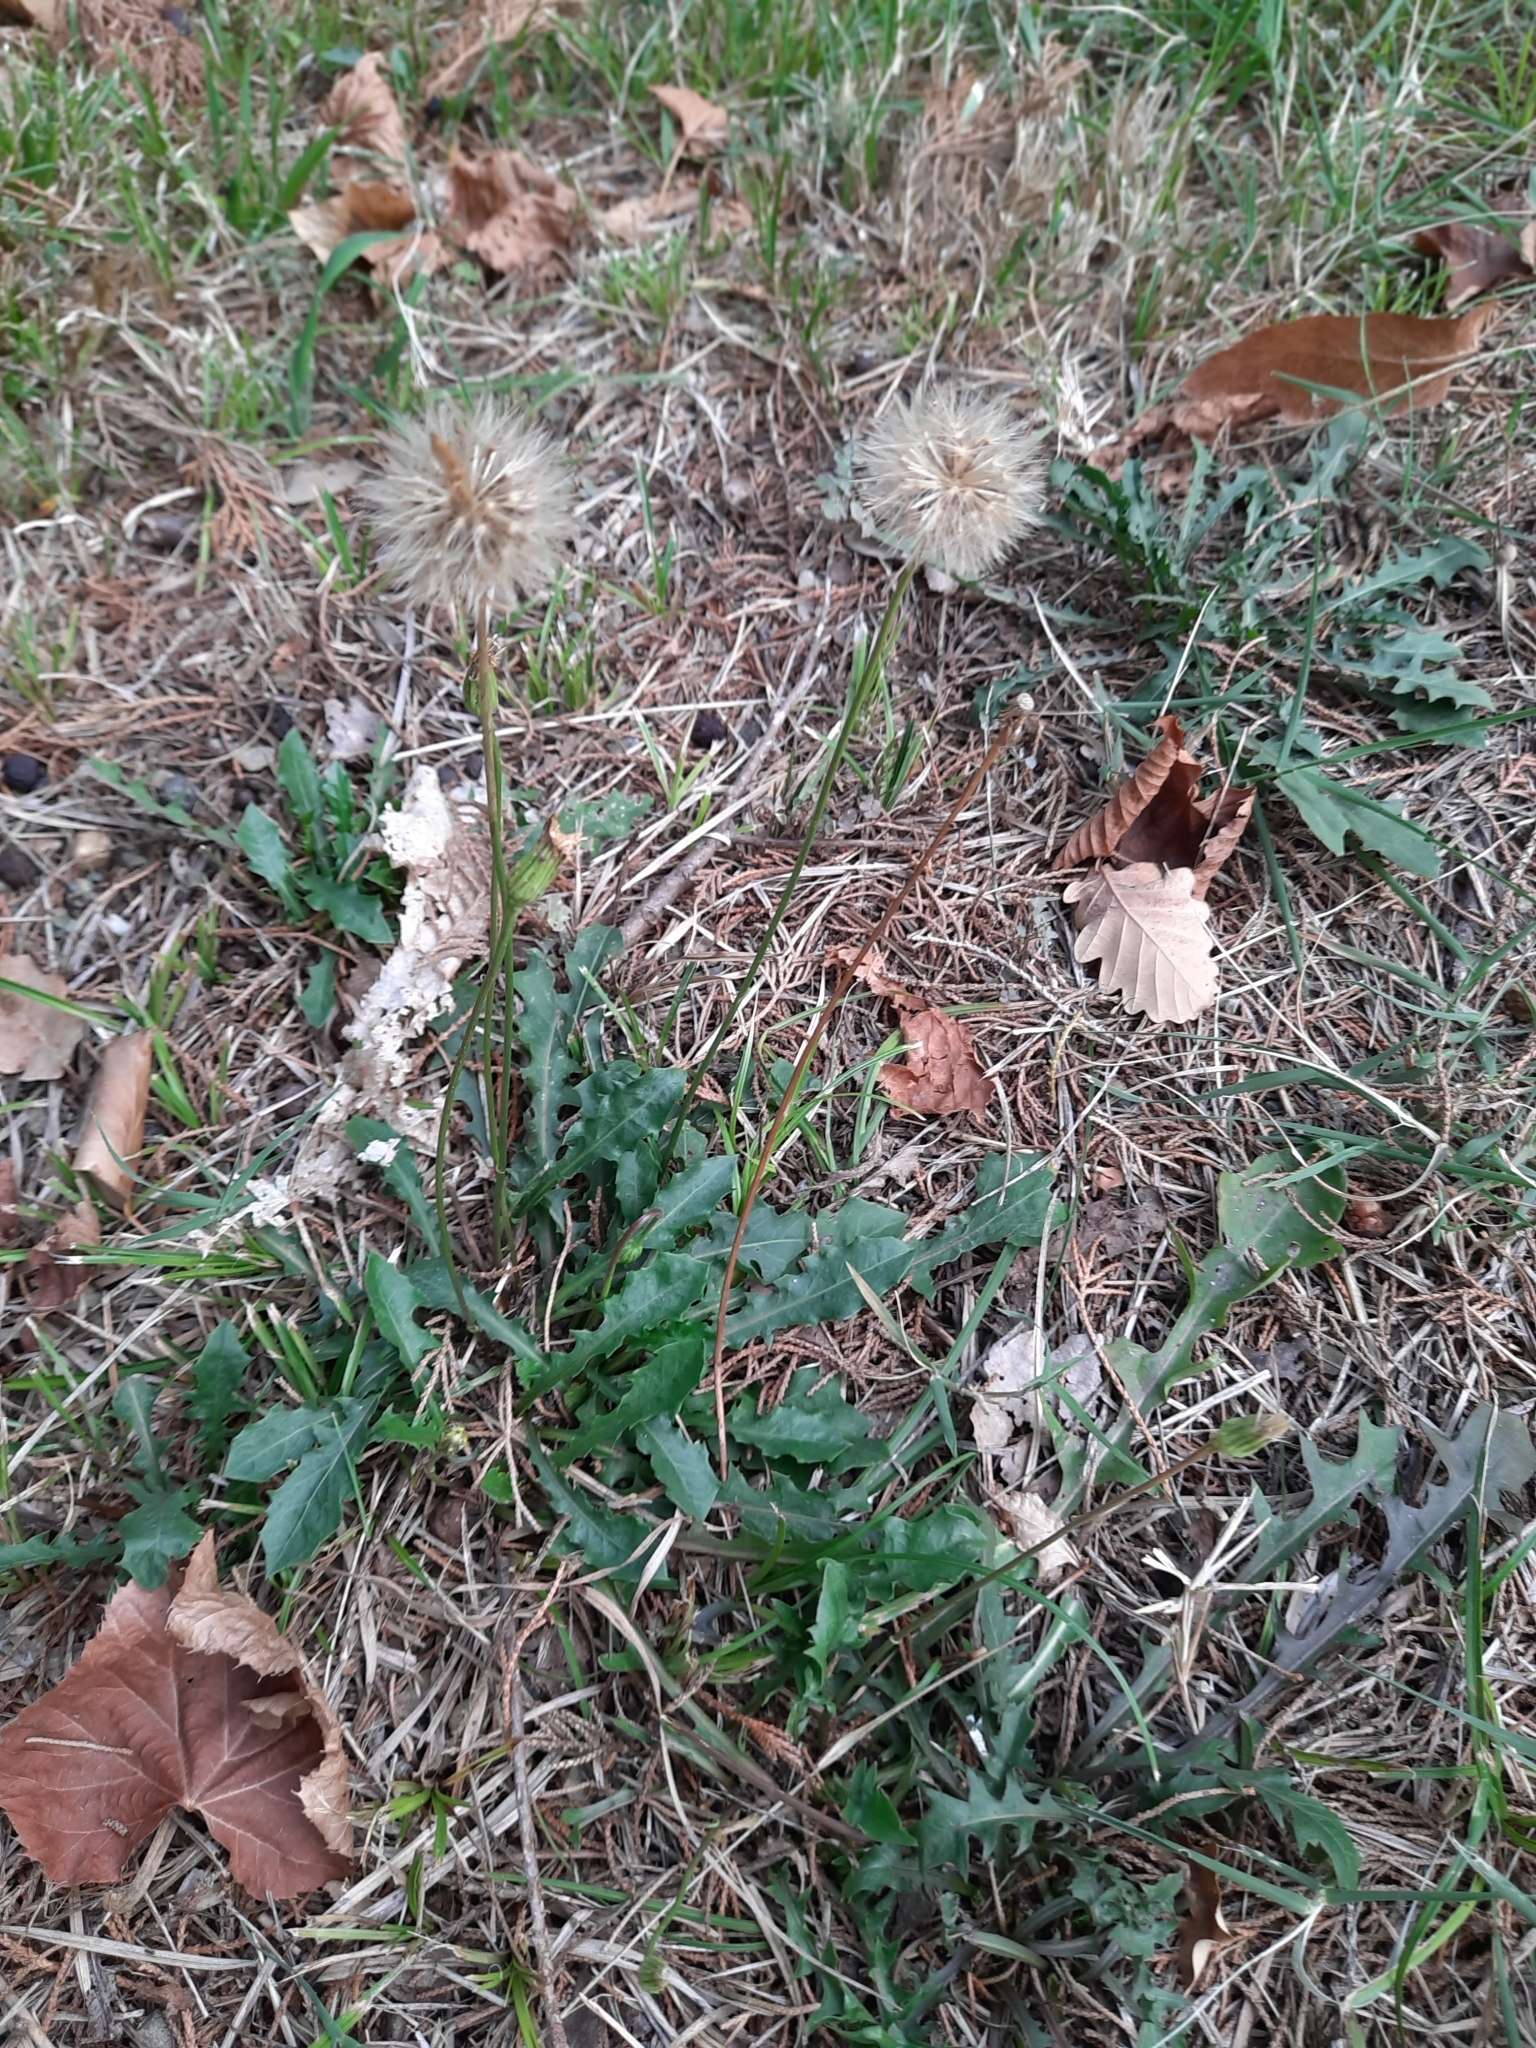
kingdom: Plantae
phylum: Tracheophyta
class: Magnoliopsida
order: Asterales
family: Asteraceae
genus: Leontodon
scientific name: Leontodon hispidus
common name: Rough hawkbit
